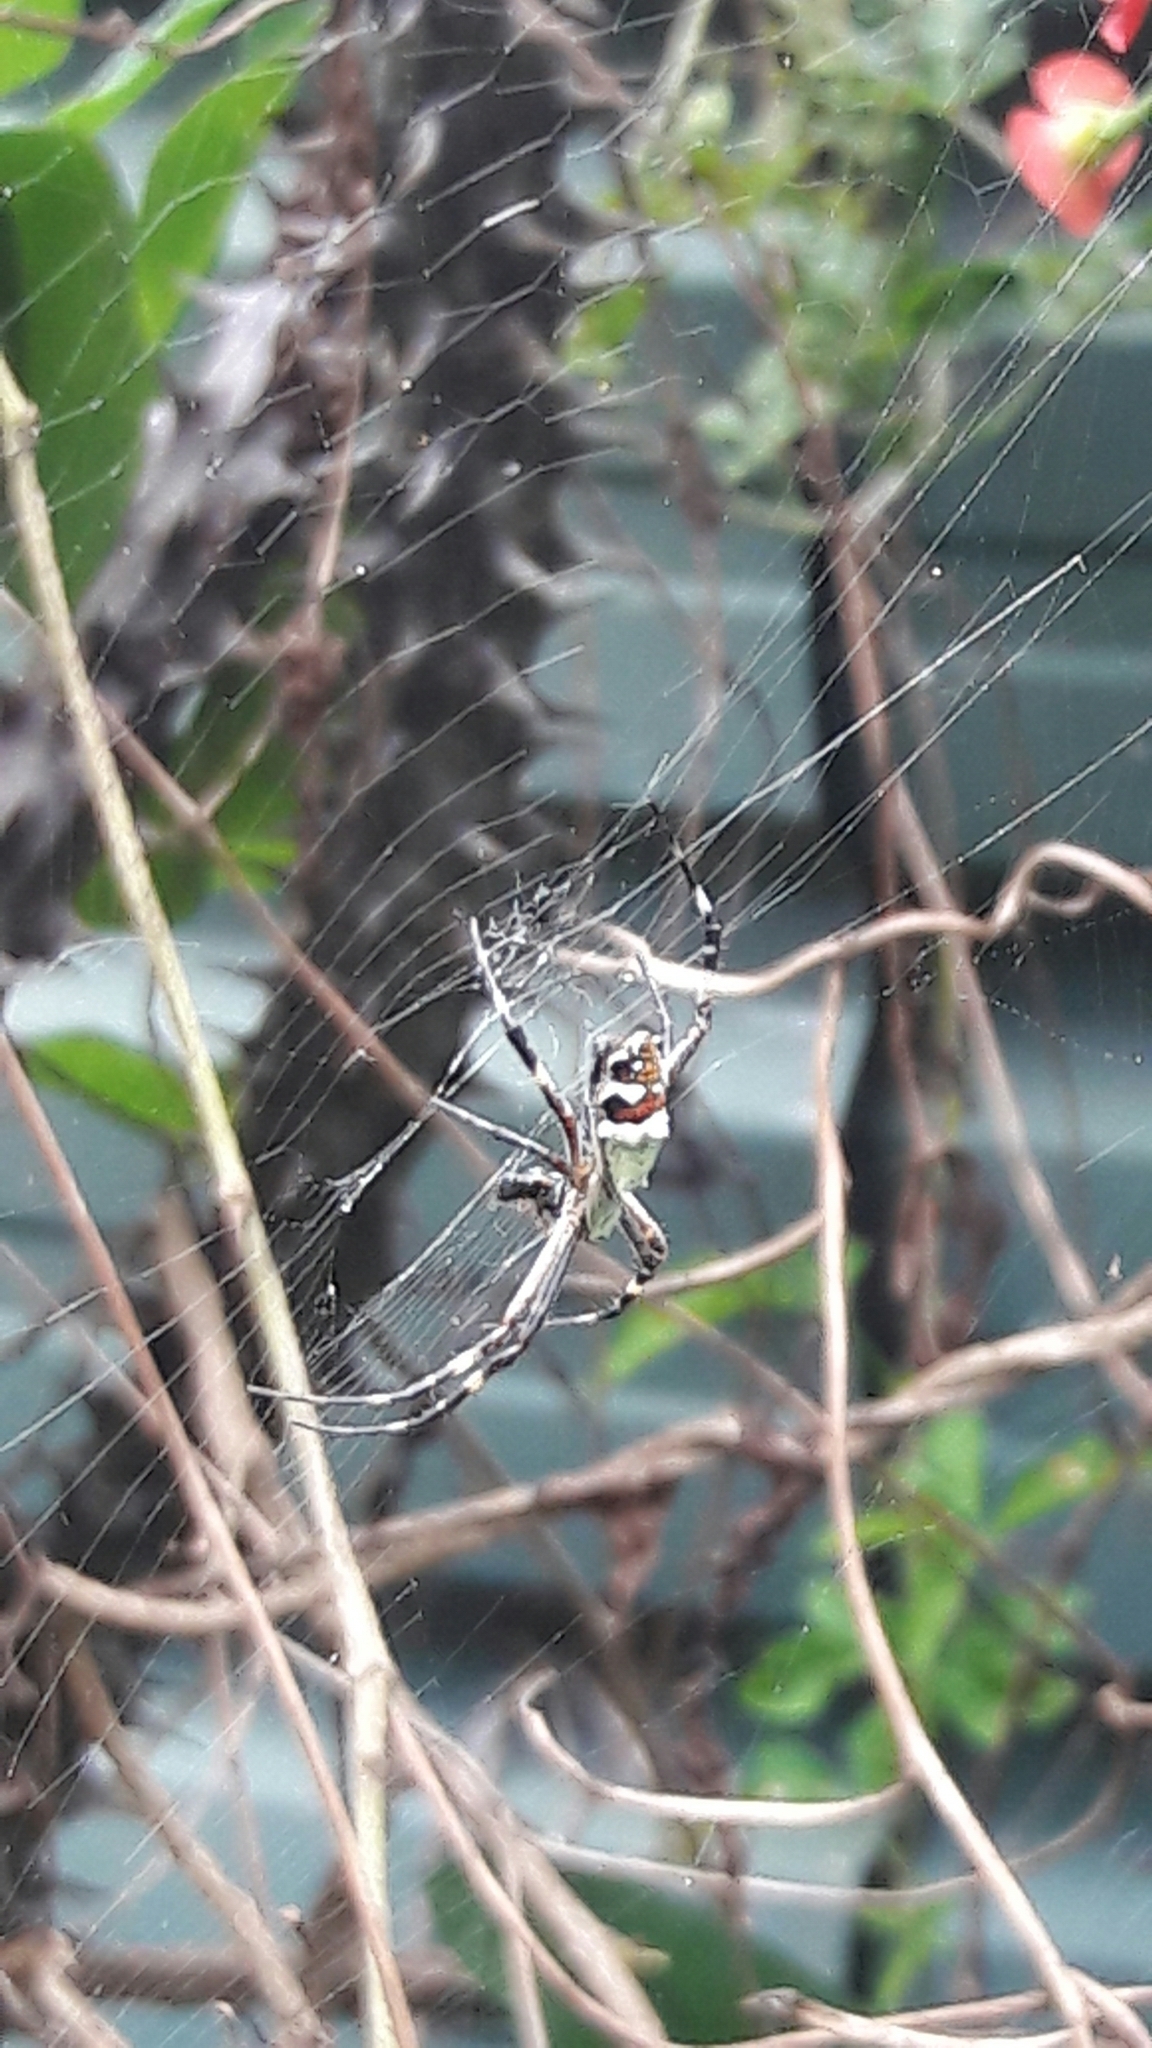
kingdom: Animalia
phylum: Arthropoda
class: Arachnida
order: Araneae
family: Araneidae
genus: Argiope
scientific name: Argiope argentata
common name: Orb weavers
